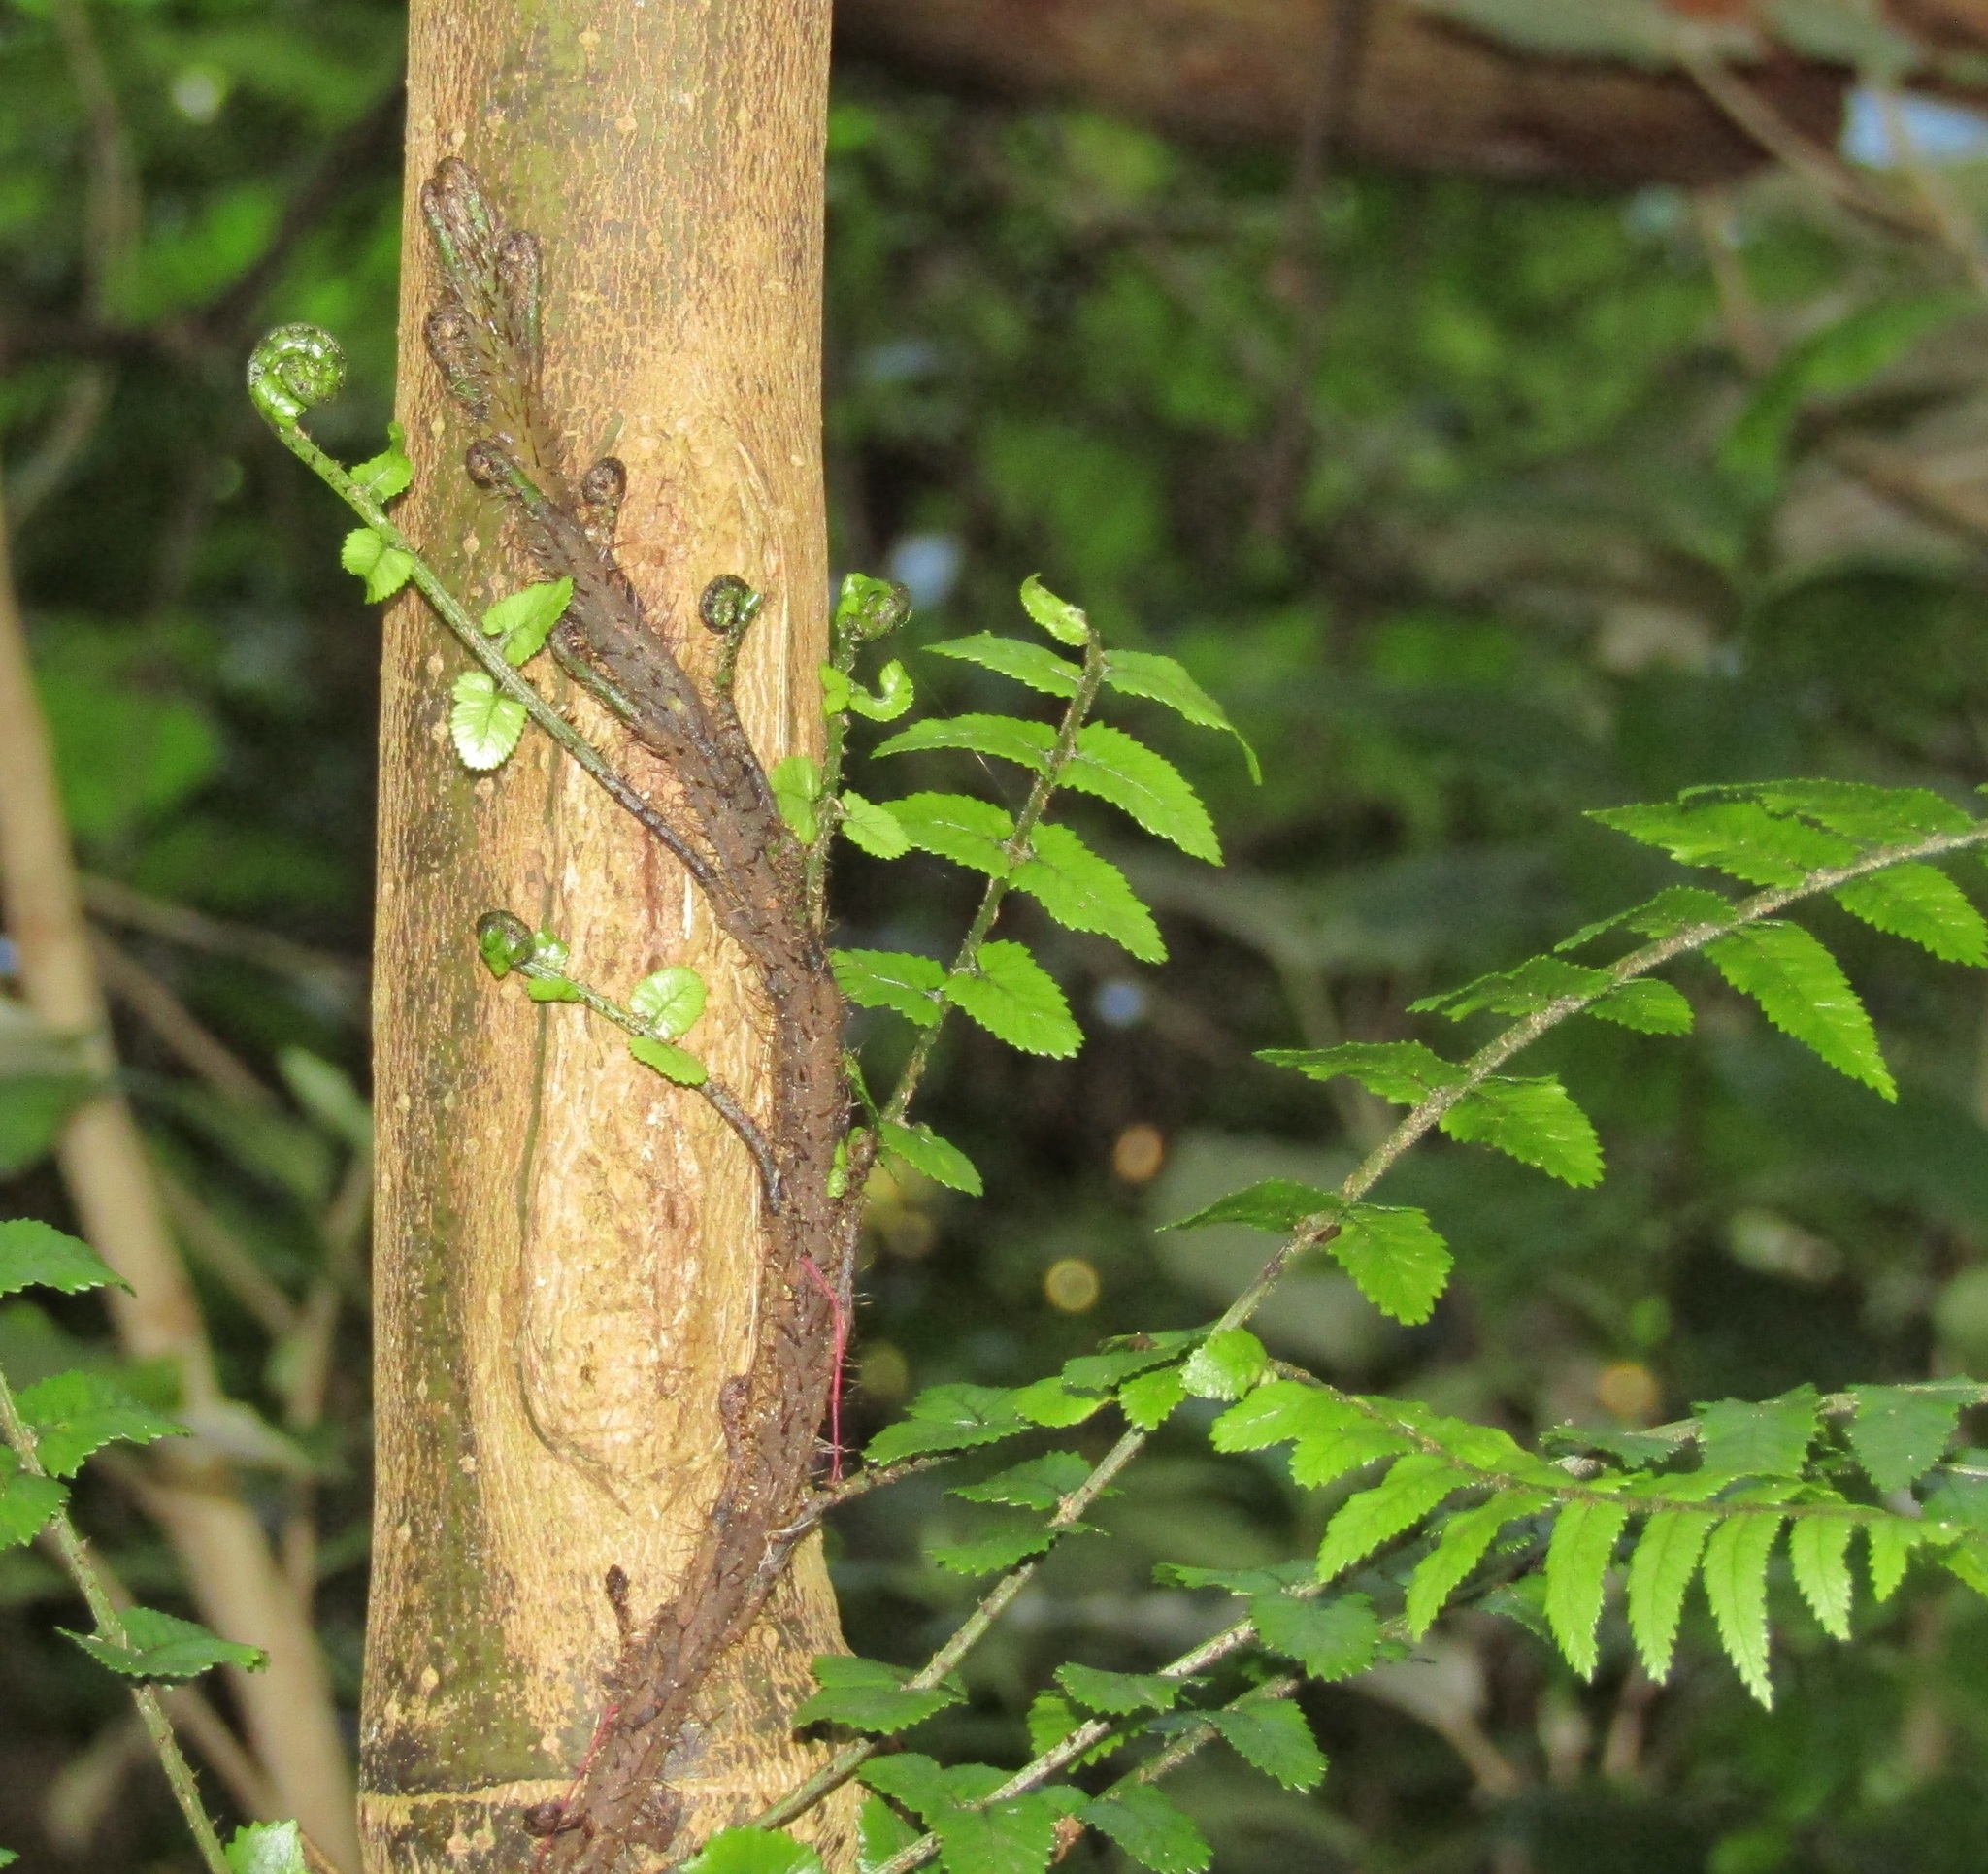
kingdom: Plantae
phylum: Tracheophyta
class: Polypodiopsida
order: Polypodiales
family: Blechnaceae
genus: Icarus
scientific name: Icarus filiformis
